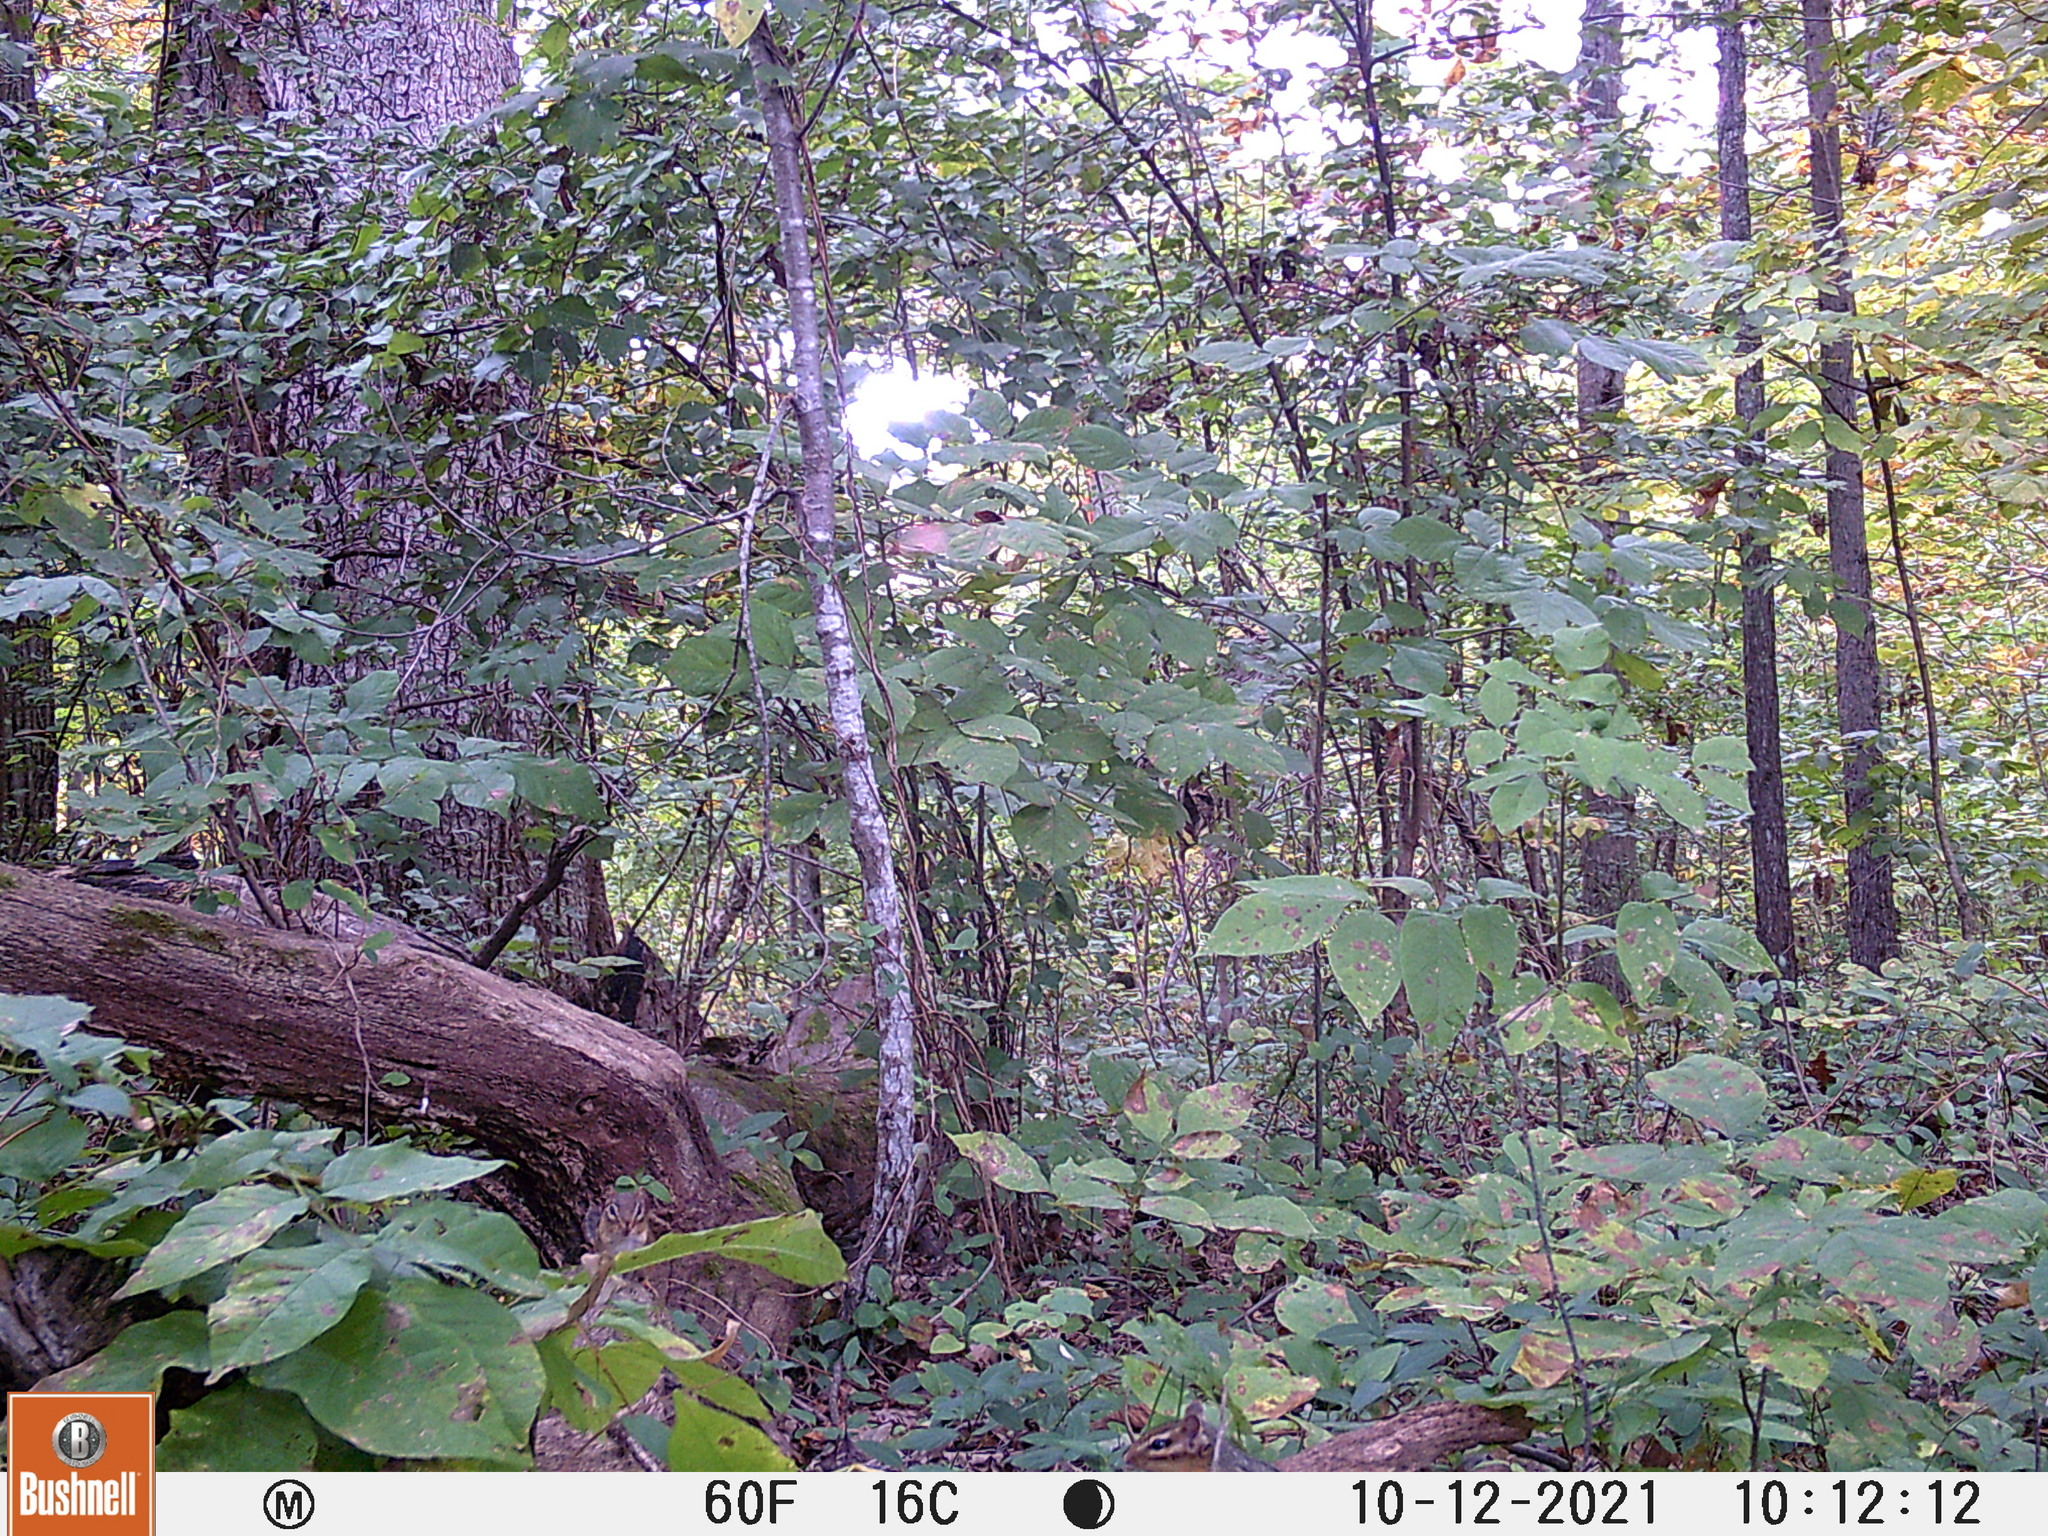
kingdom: Animalia
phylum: Chordata
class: Mammalia
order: Rodentia
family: Sciuridae
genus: Tamias
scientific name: Tamias striatus
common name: Eastern chipmunk
